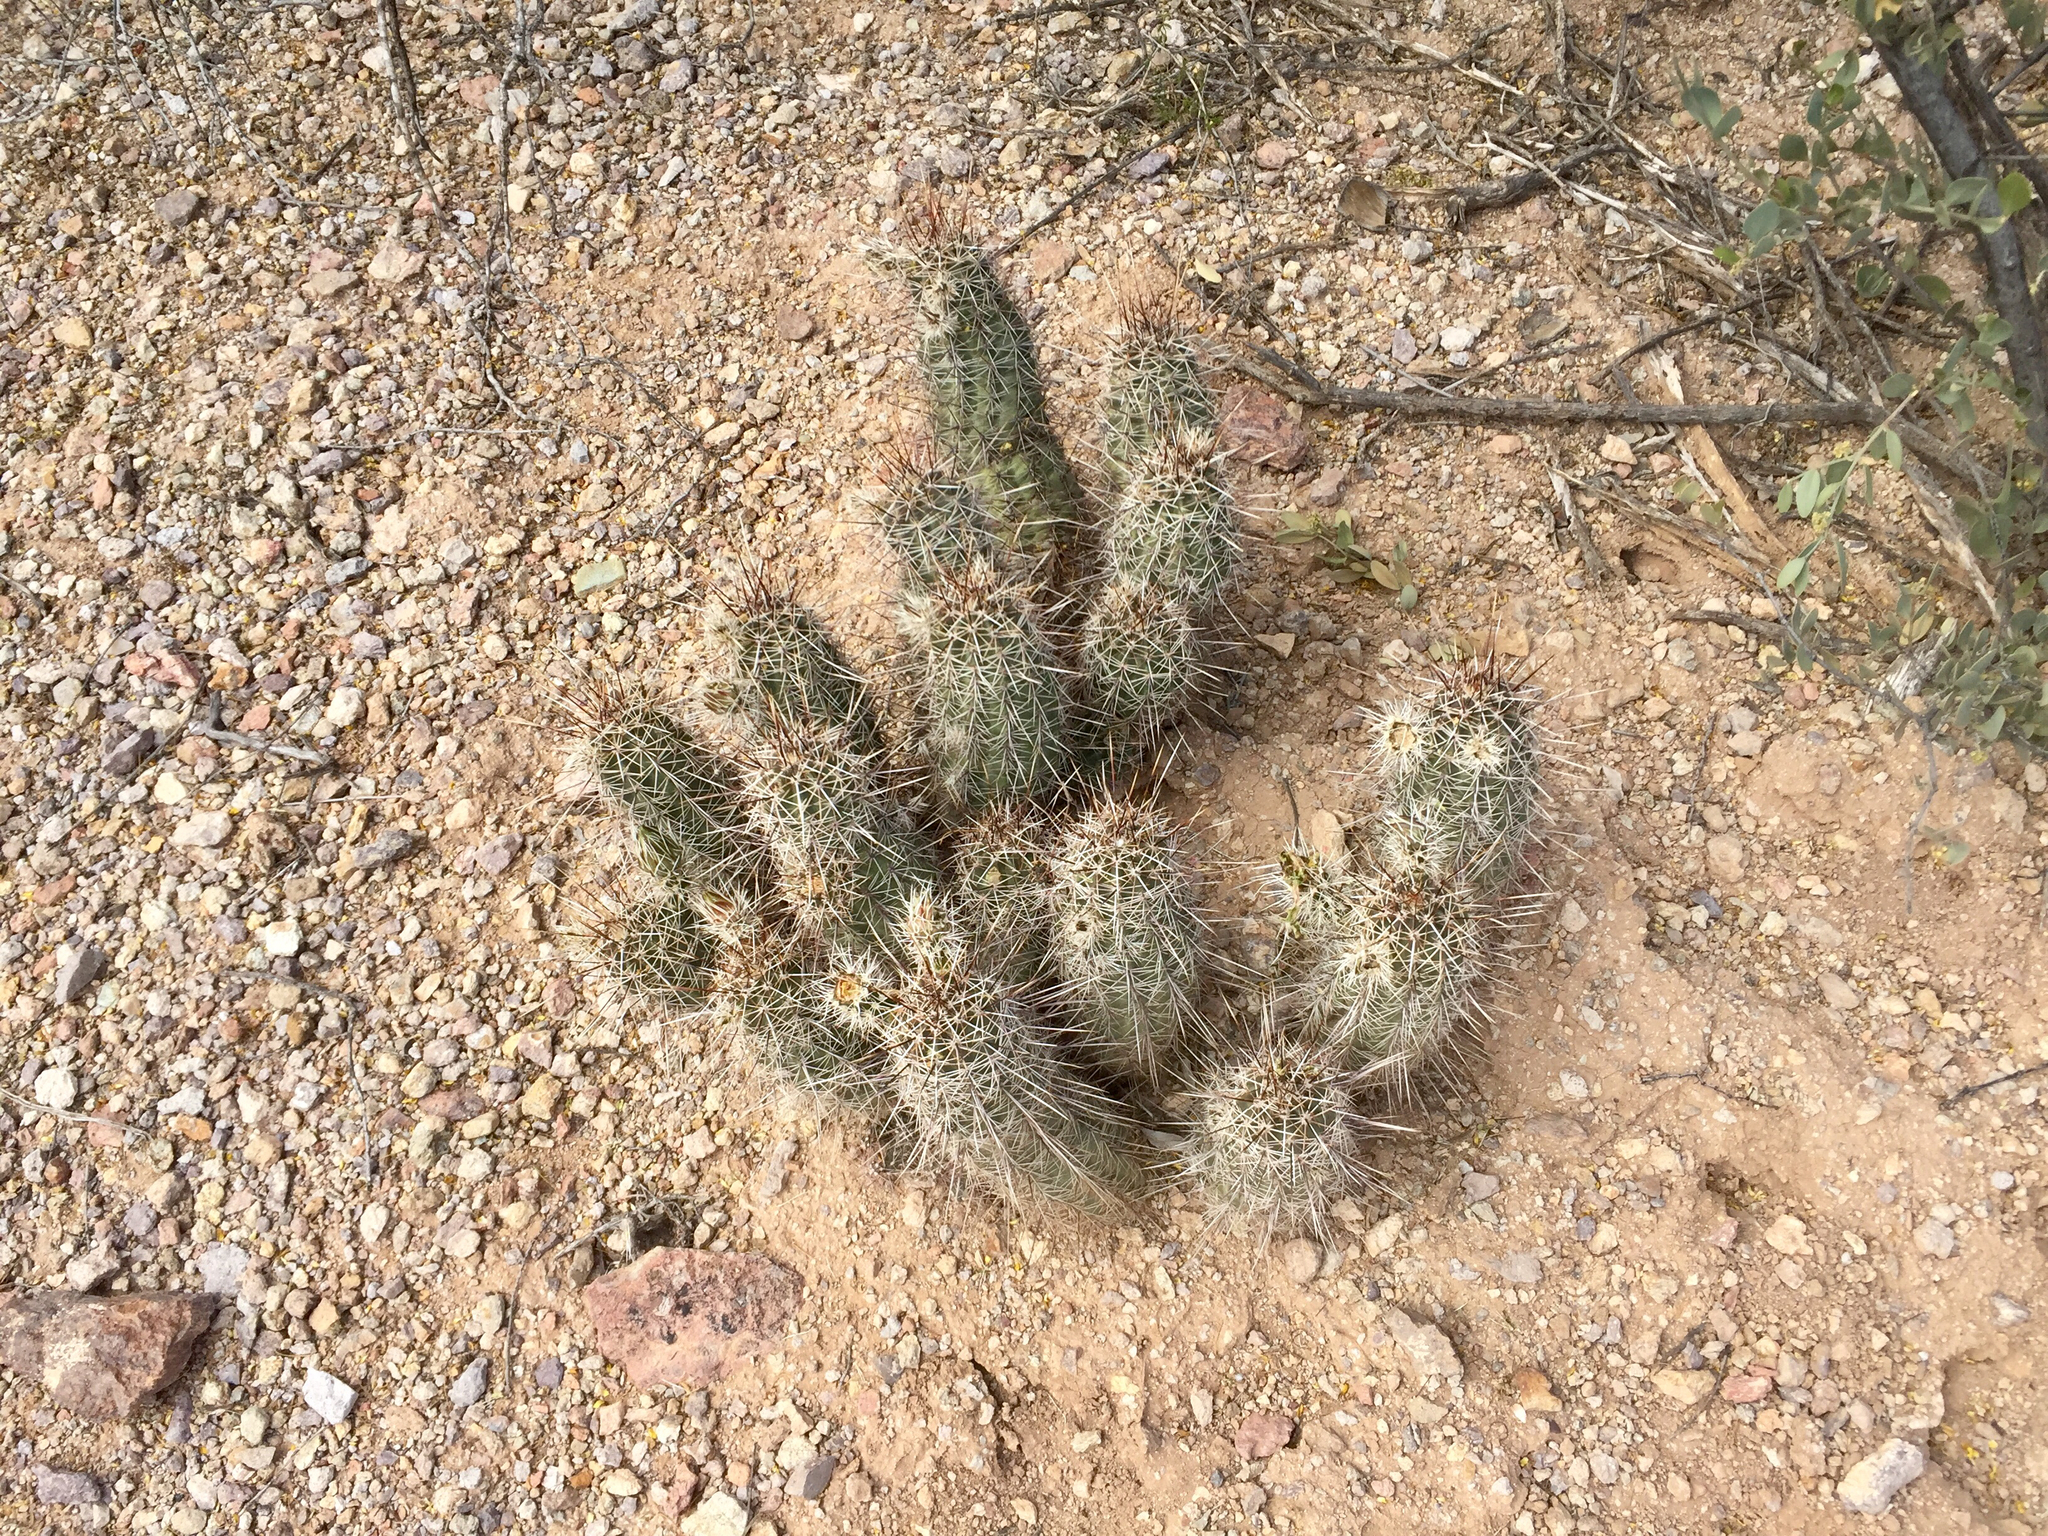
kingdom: Plantae
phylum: Tracheophyta
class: Magnoliopsida
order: Caryophyllales
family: Cactaceae
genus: Echinocereus
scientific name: Echinocereus fasciculatus
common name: Bundle hedgehog
